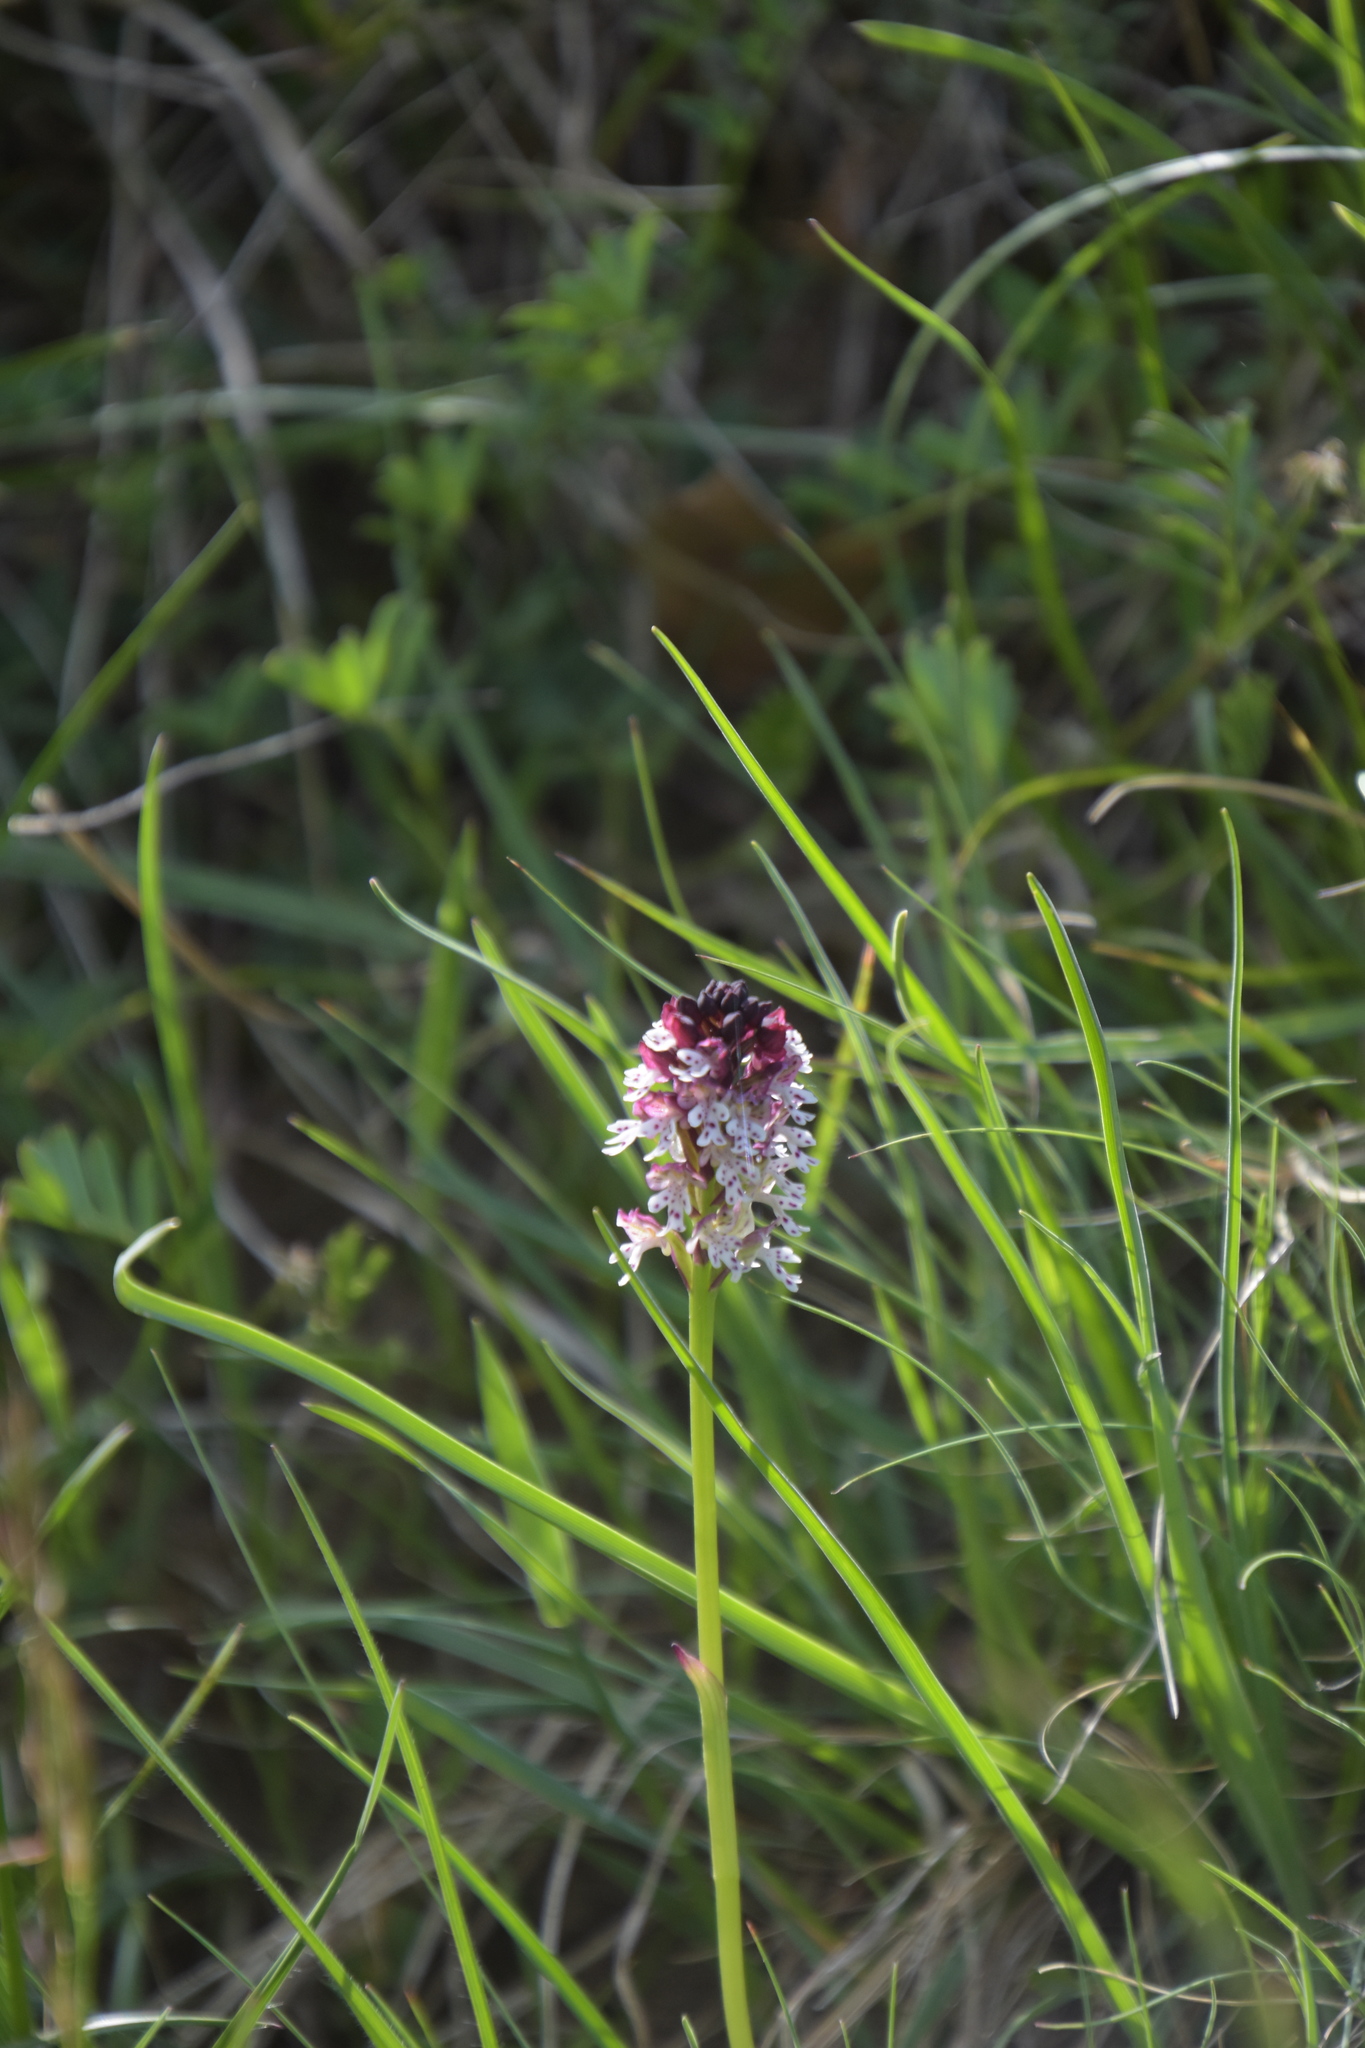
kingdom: Plantae
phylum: Tracheophyta
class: Liliopsida
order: Asparagales
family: Orchidaceae
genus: Neotinea
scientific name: Neotinea ustulata
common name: Burnt orchid
